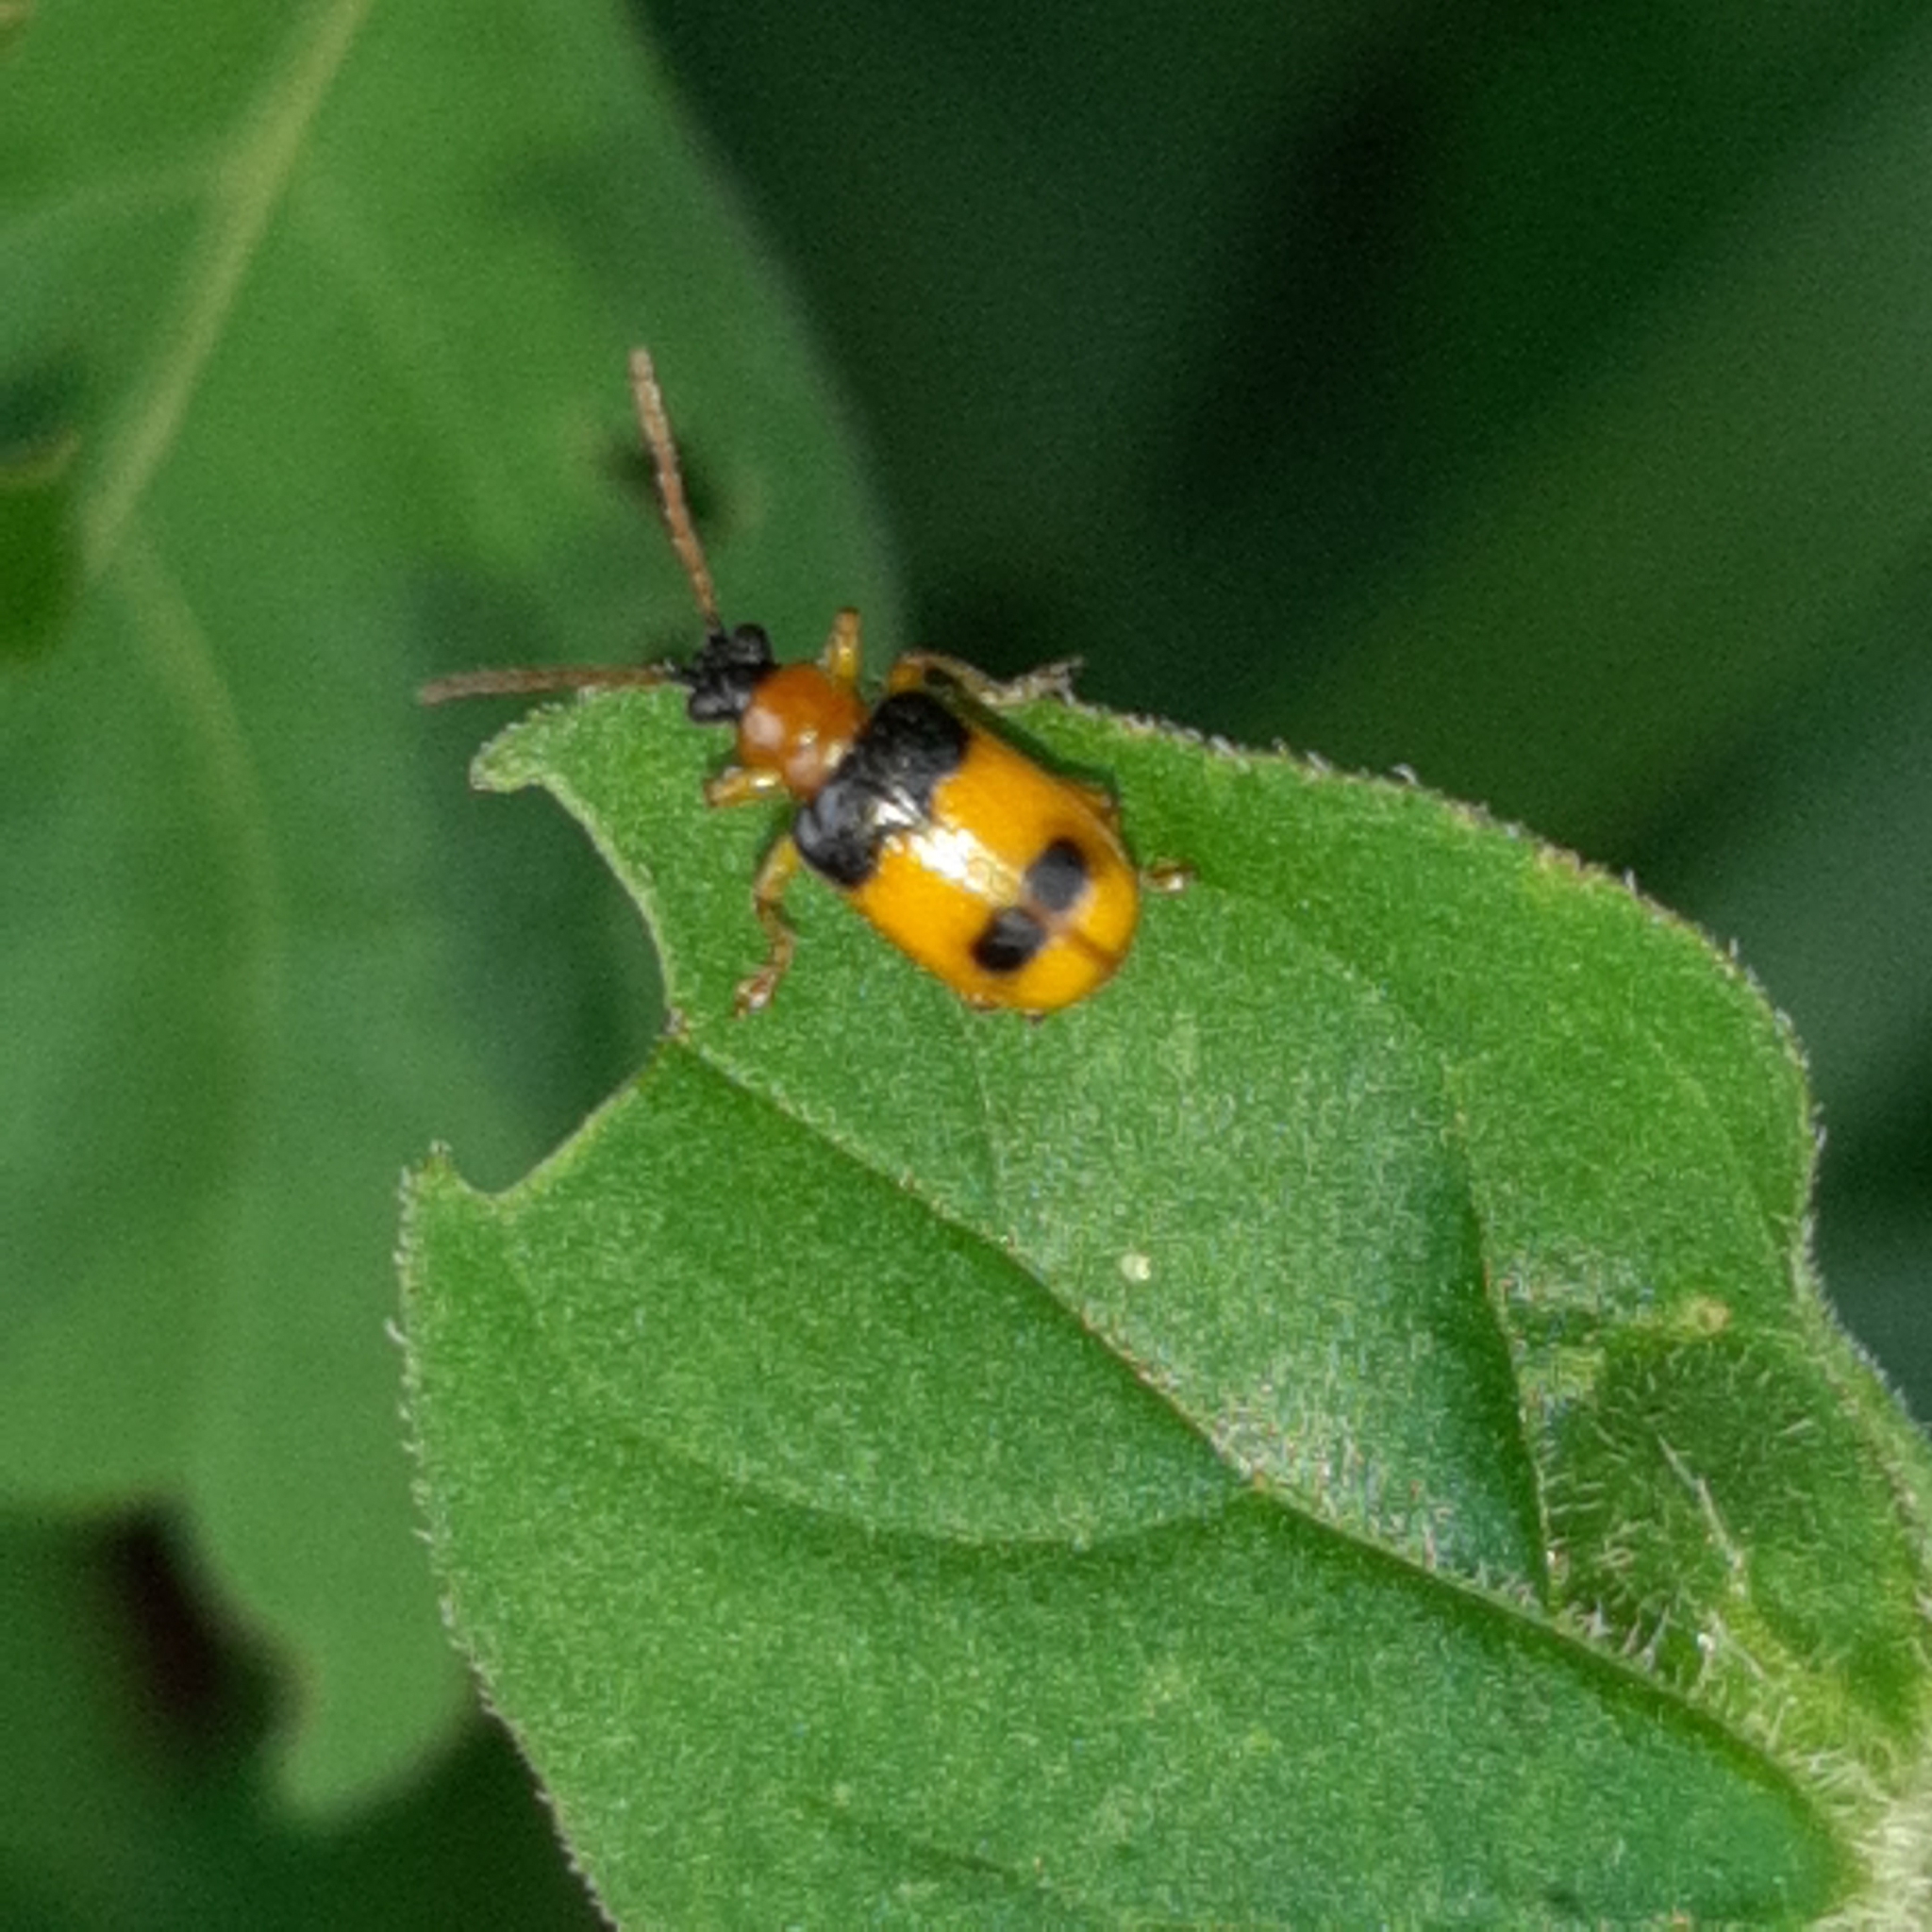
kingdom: Animalia
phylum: Arthropoda
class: Insecta
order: Coleoptera
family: Chrysomelidae
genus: Lema
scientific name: Lema
